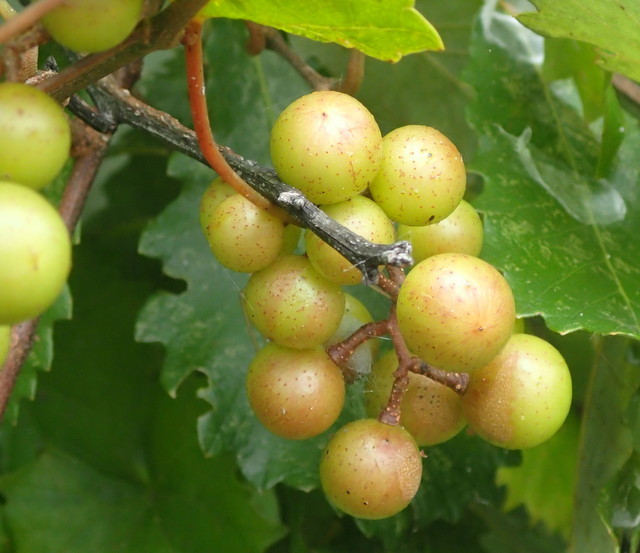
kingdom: Plantae
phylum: Tracheophyta
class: Magnoliopsida
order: Vitales
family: Vitaceae
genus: Vitis
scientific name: Vitis rotundifolia
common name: Muscadine grape
